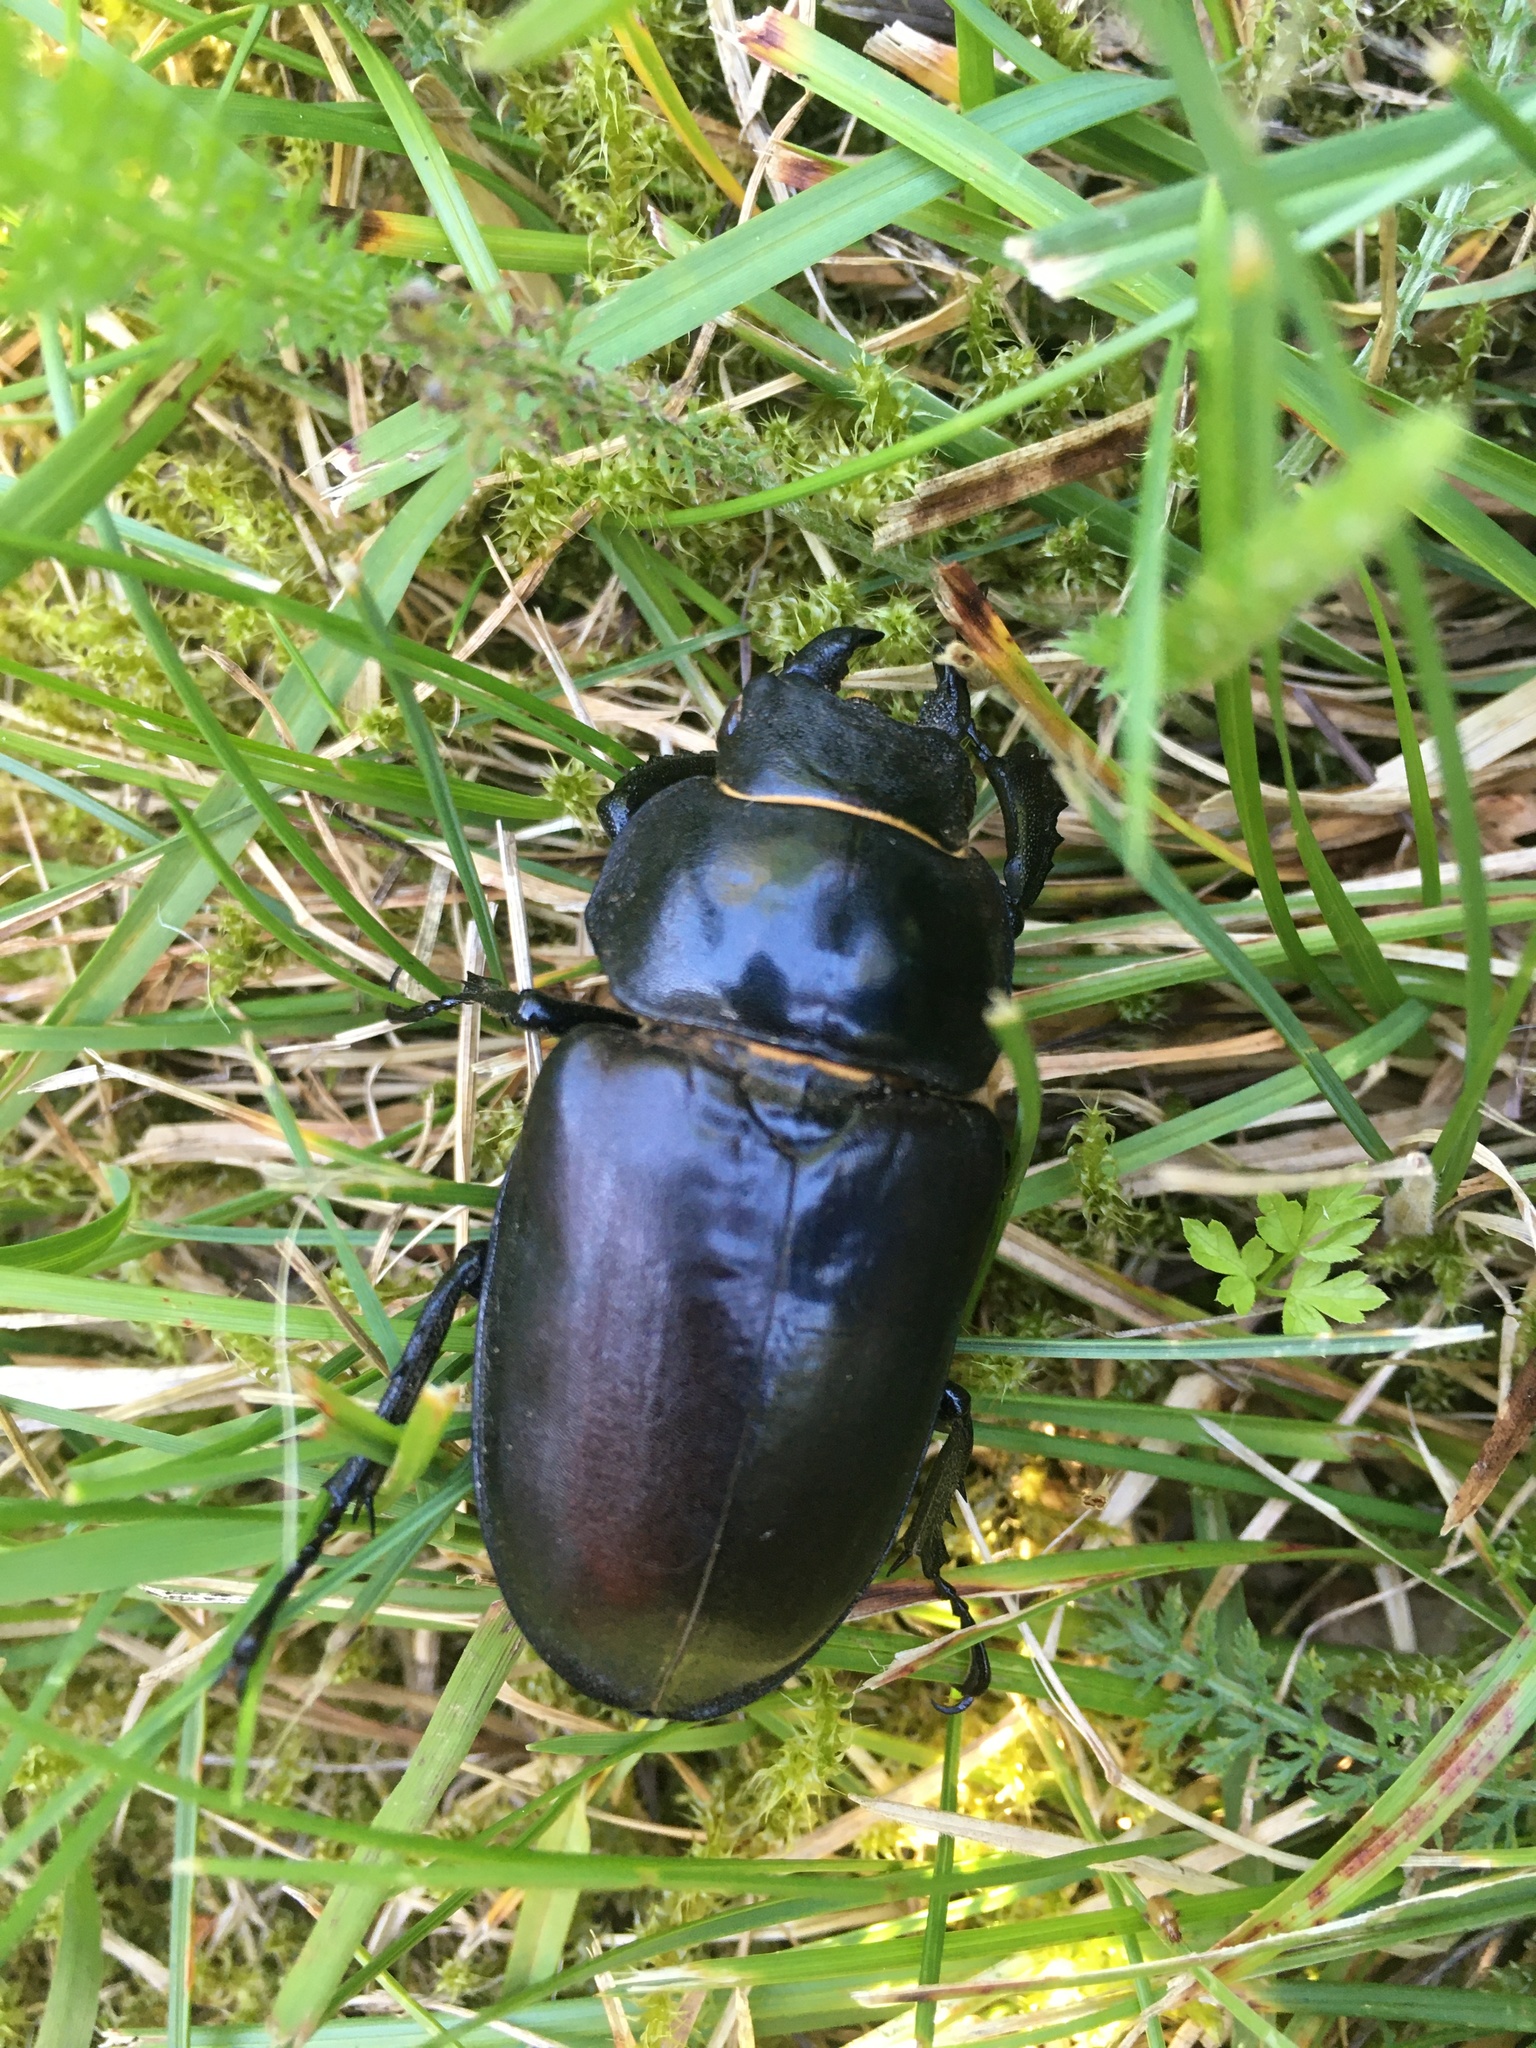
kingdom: Animalia
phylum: Arthropoda
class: Insecta
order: Coleoptera
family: Lucanidae
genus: Lucanus
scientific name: Lucanus cervus
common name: Stag beetle
